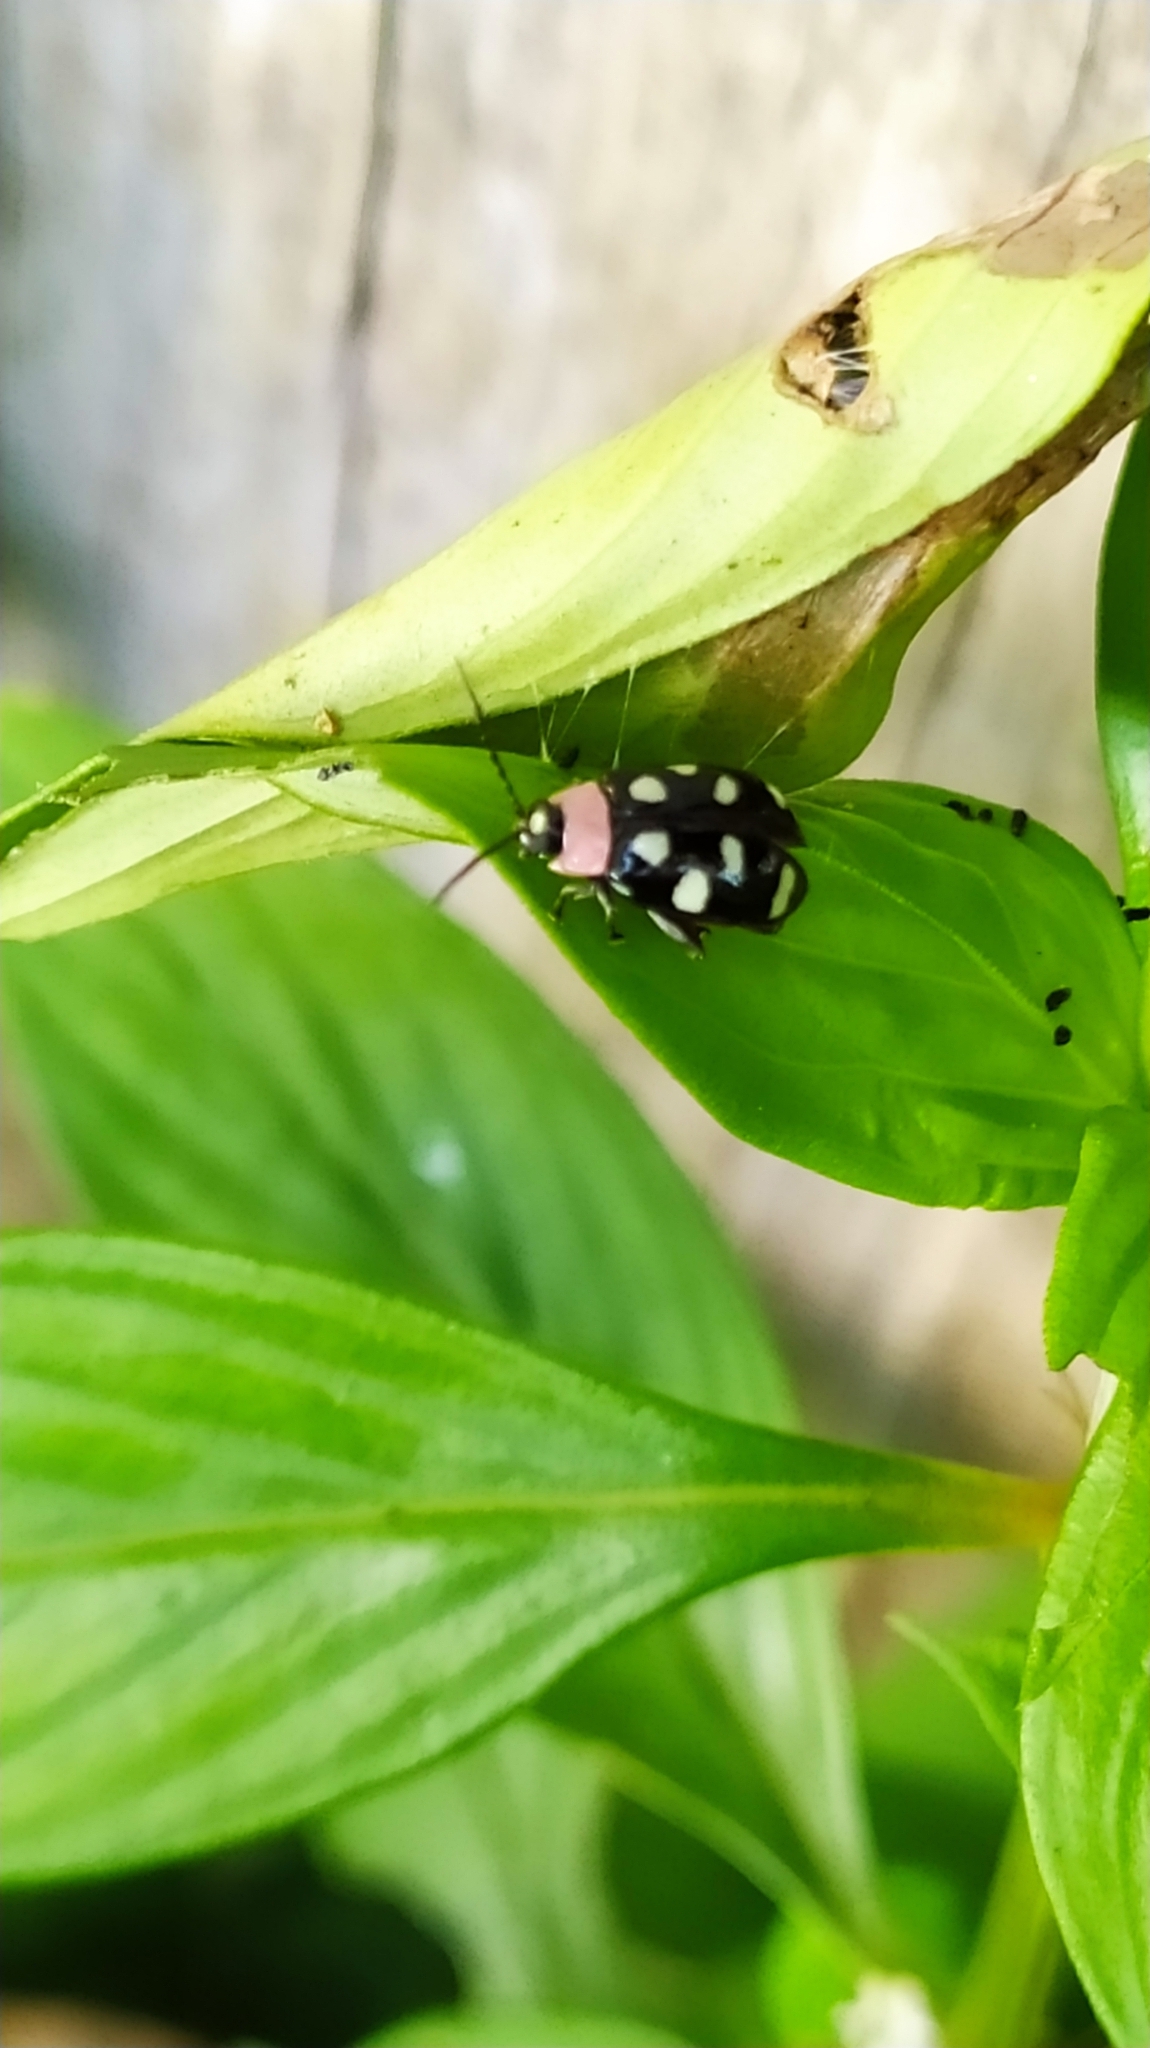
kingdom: Animalia
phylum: Arthropoda
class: Insecta
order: Coleoptera
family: Chrysomelidae
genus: Omophoita
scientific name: Omophoita aequinoctialis
